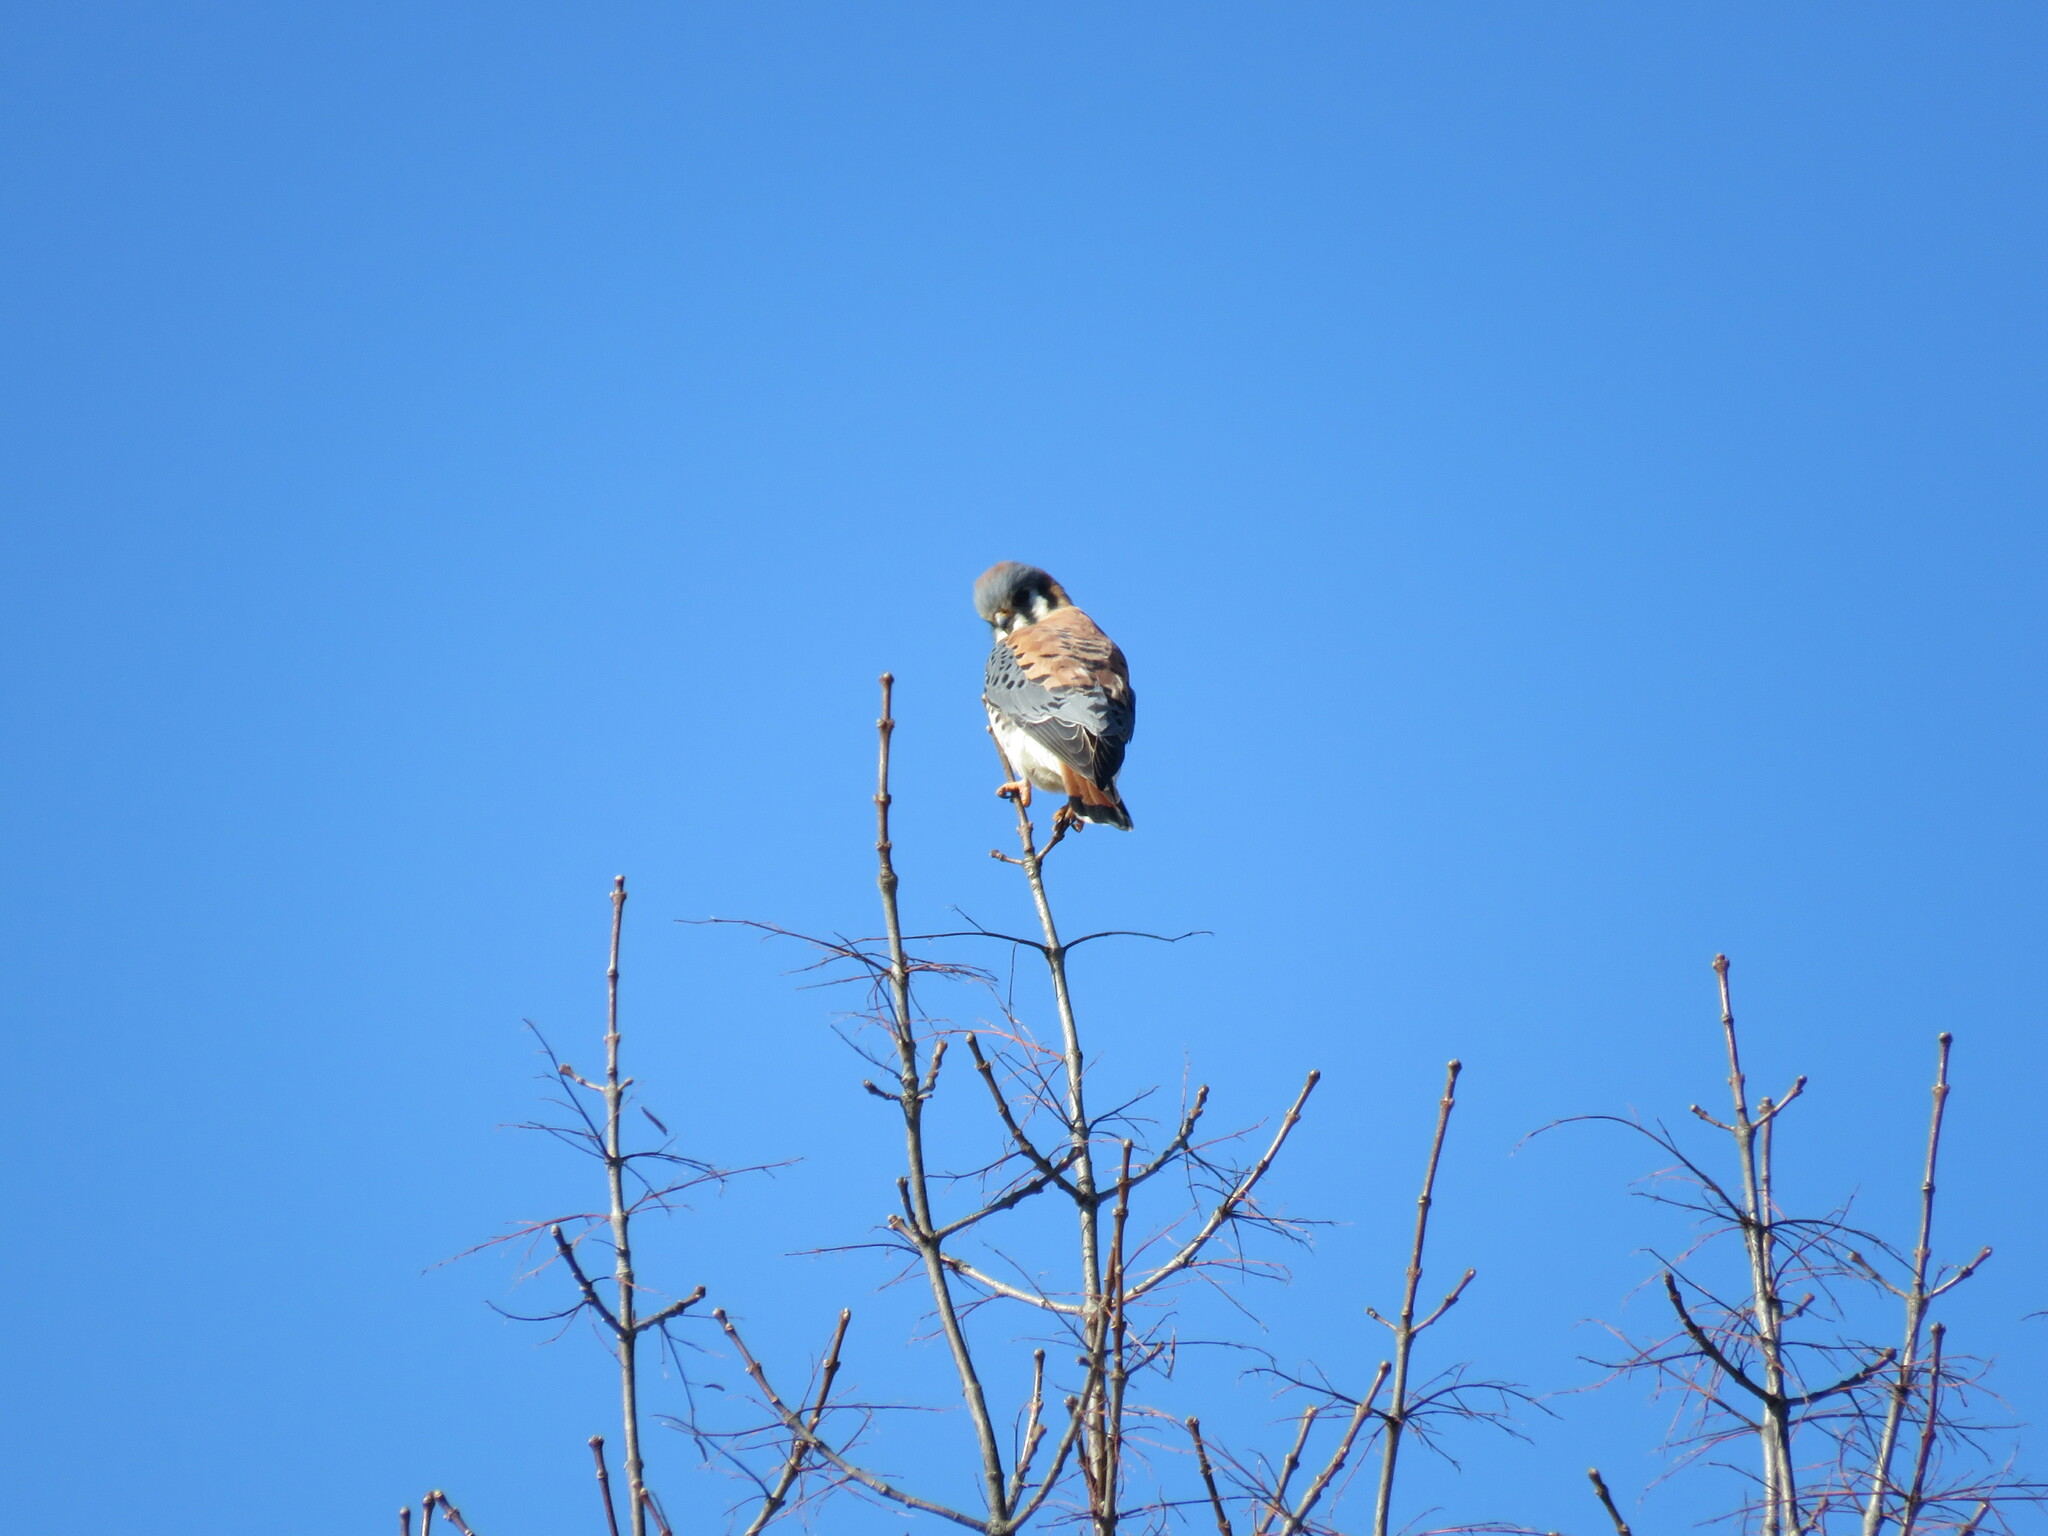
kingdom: Animalia
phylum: Chordata
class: Aves
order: Falconiformes
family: Falconidae
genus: Falco
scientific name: Falco sparverius
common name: American kestrel
